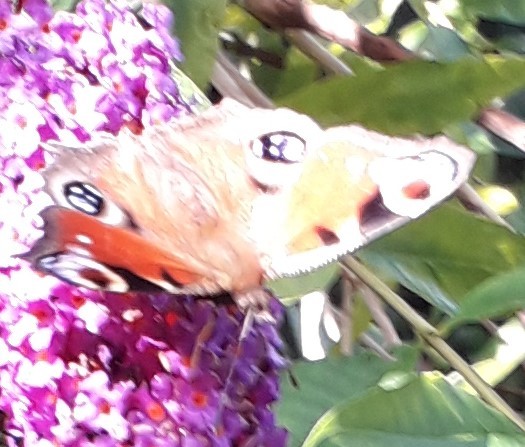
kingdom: Animalia
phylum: Arthropoda
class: Insecta
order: Lepidoptera
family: Nymphalidae
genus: Aglais
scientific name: Aglais io
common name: Peacock
